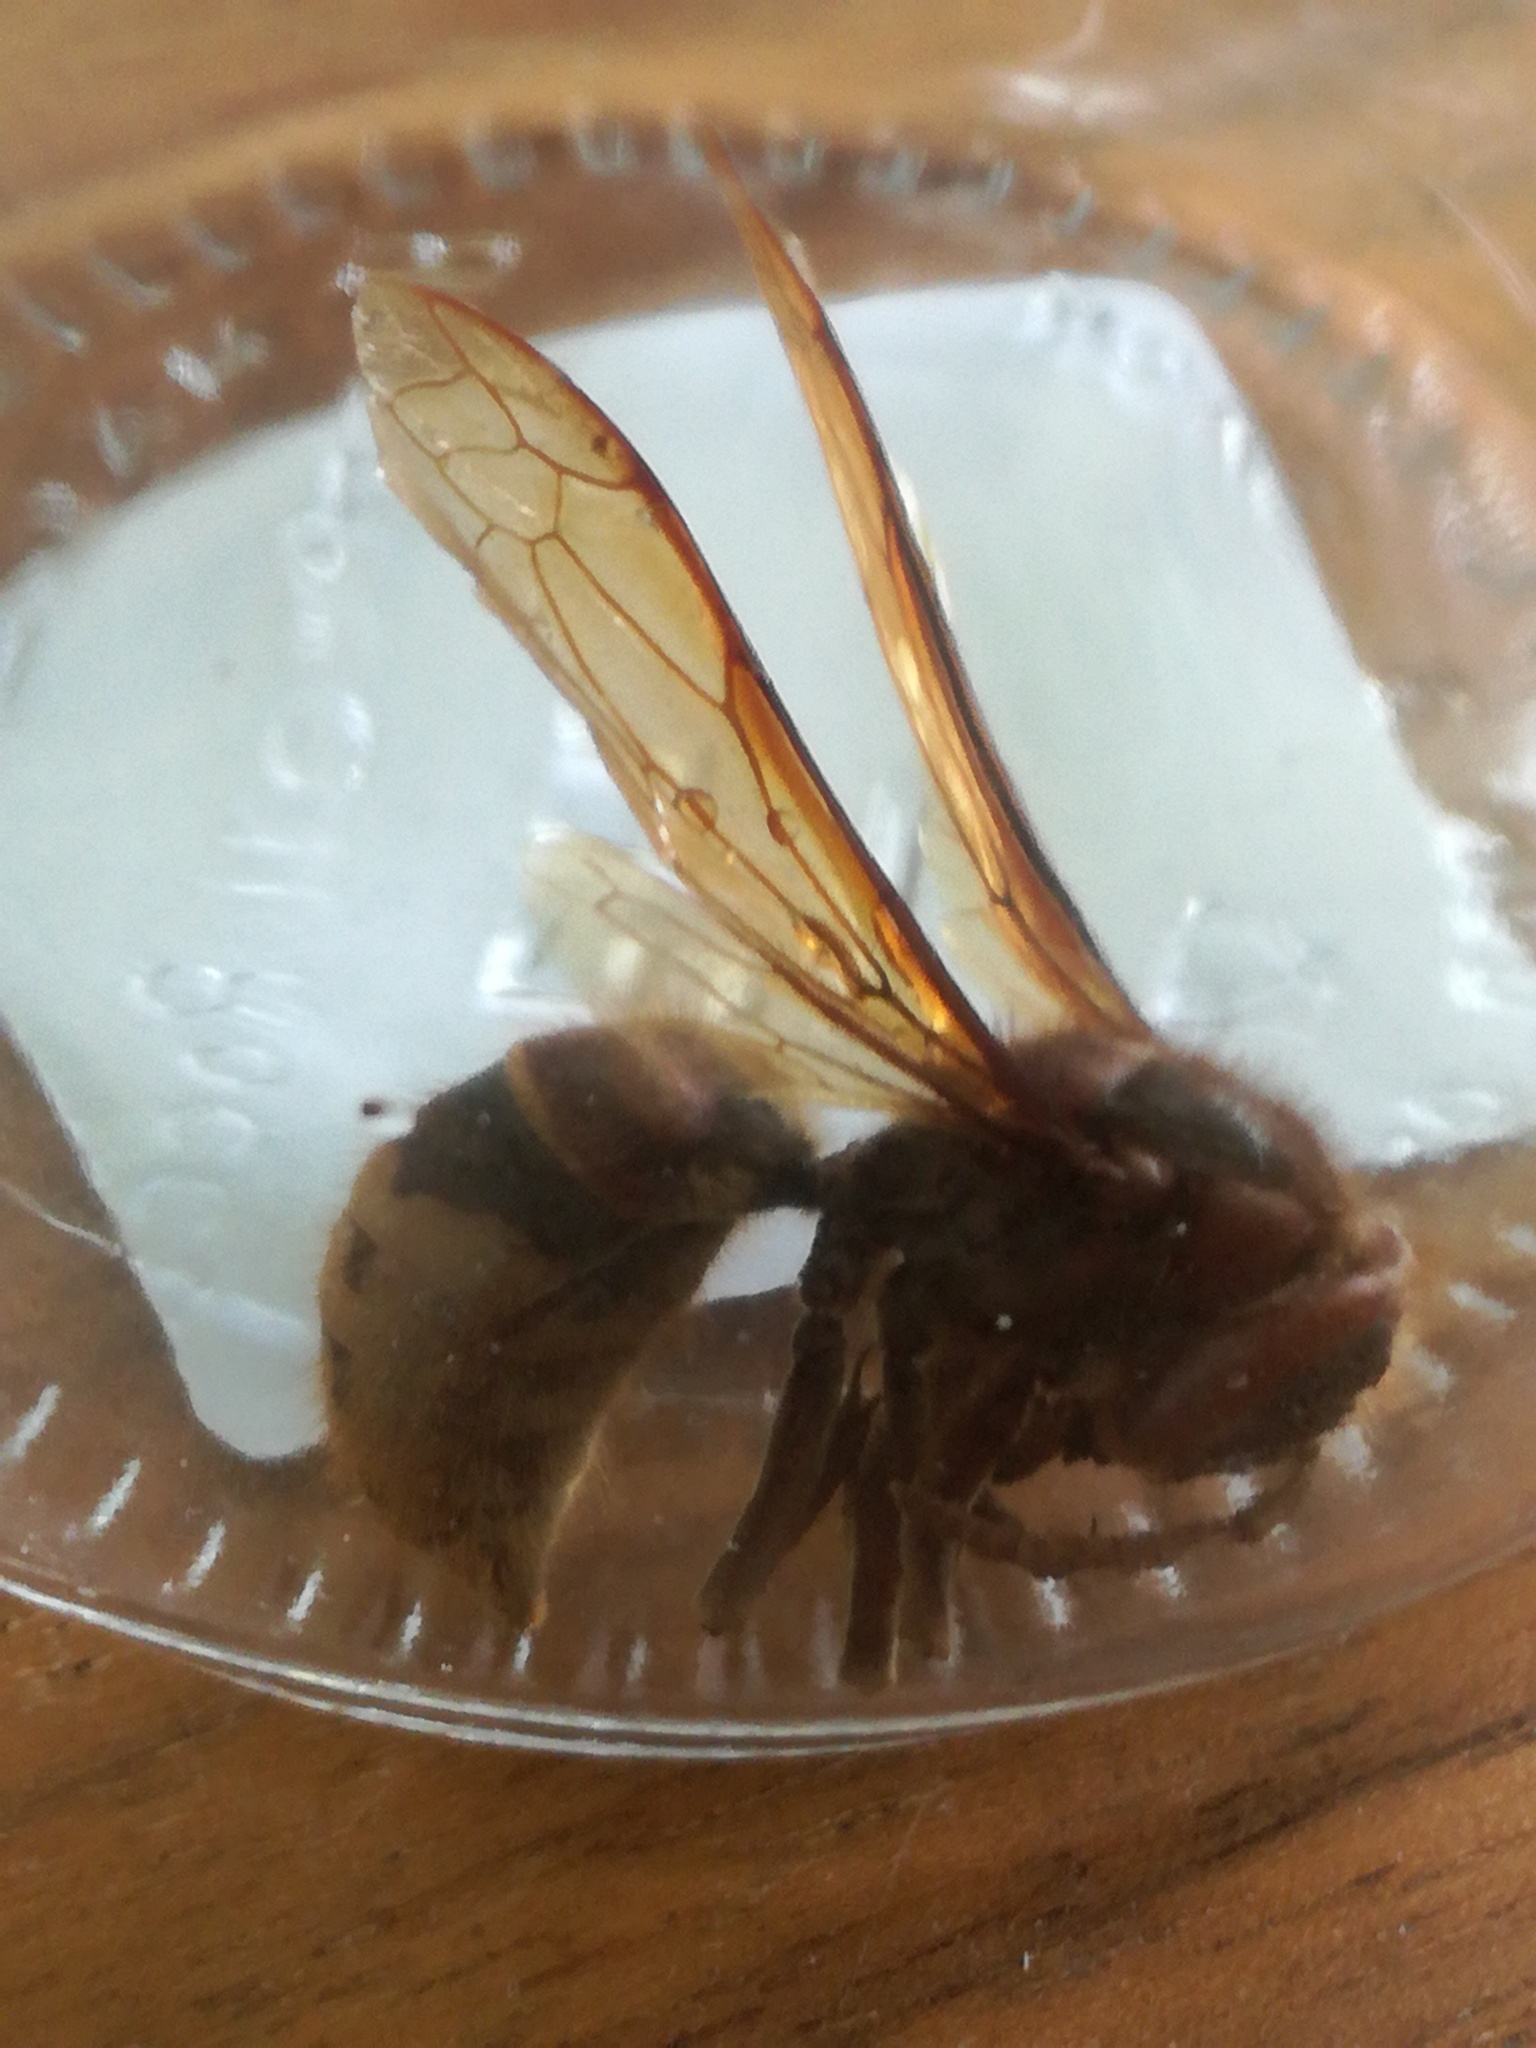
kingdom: Animalia
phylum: Arthropoda
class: Insecta
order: Hymenoptera
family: Vespidae
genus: Vespa
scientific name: Vespa crabro
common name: Hornet
